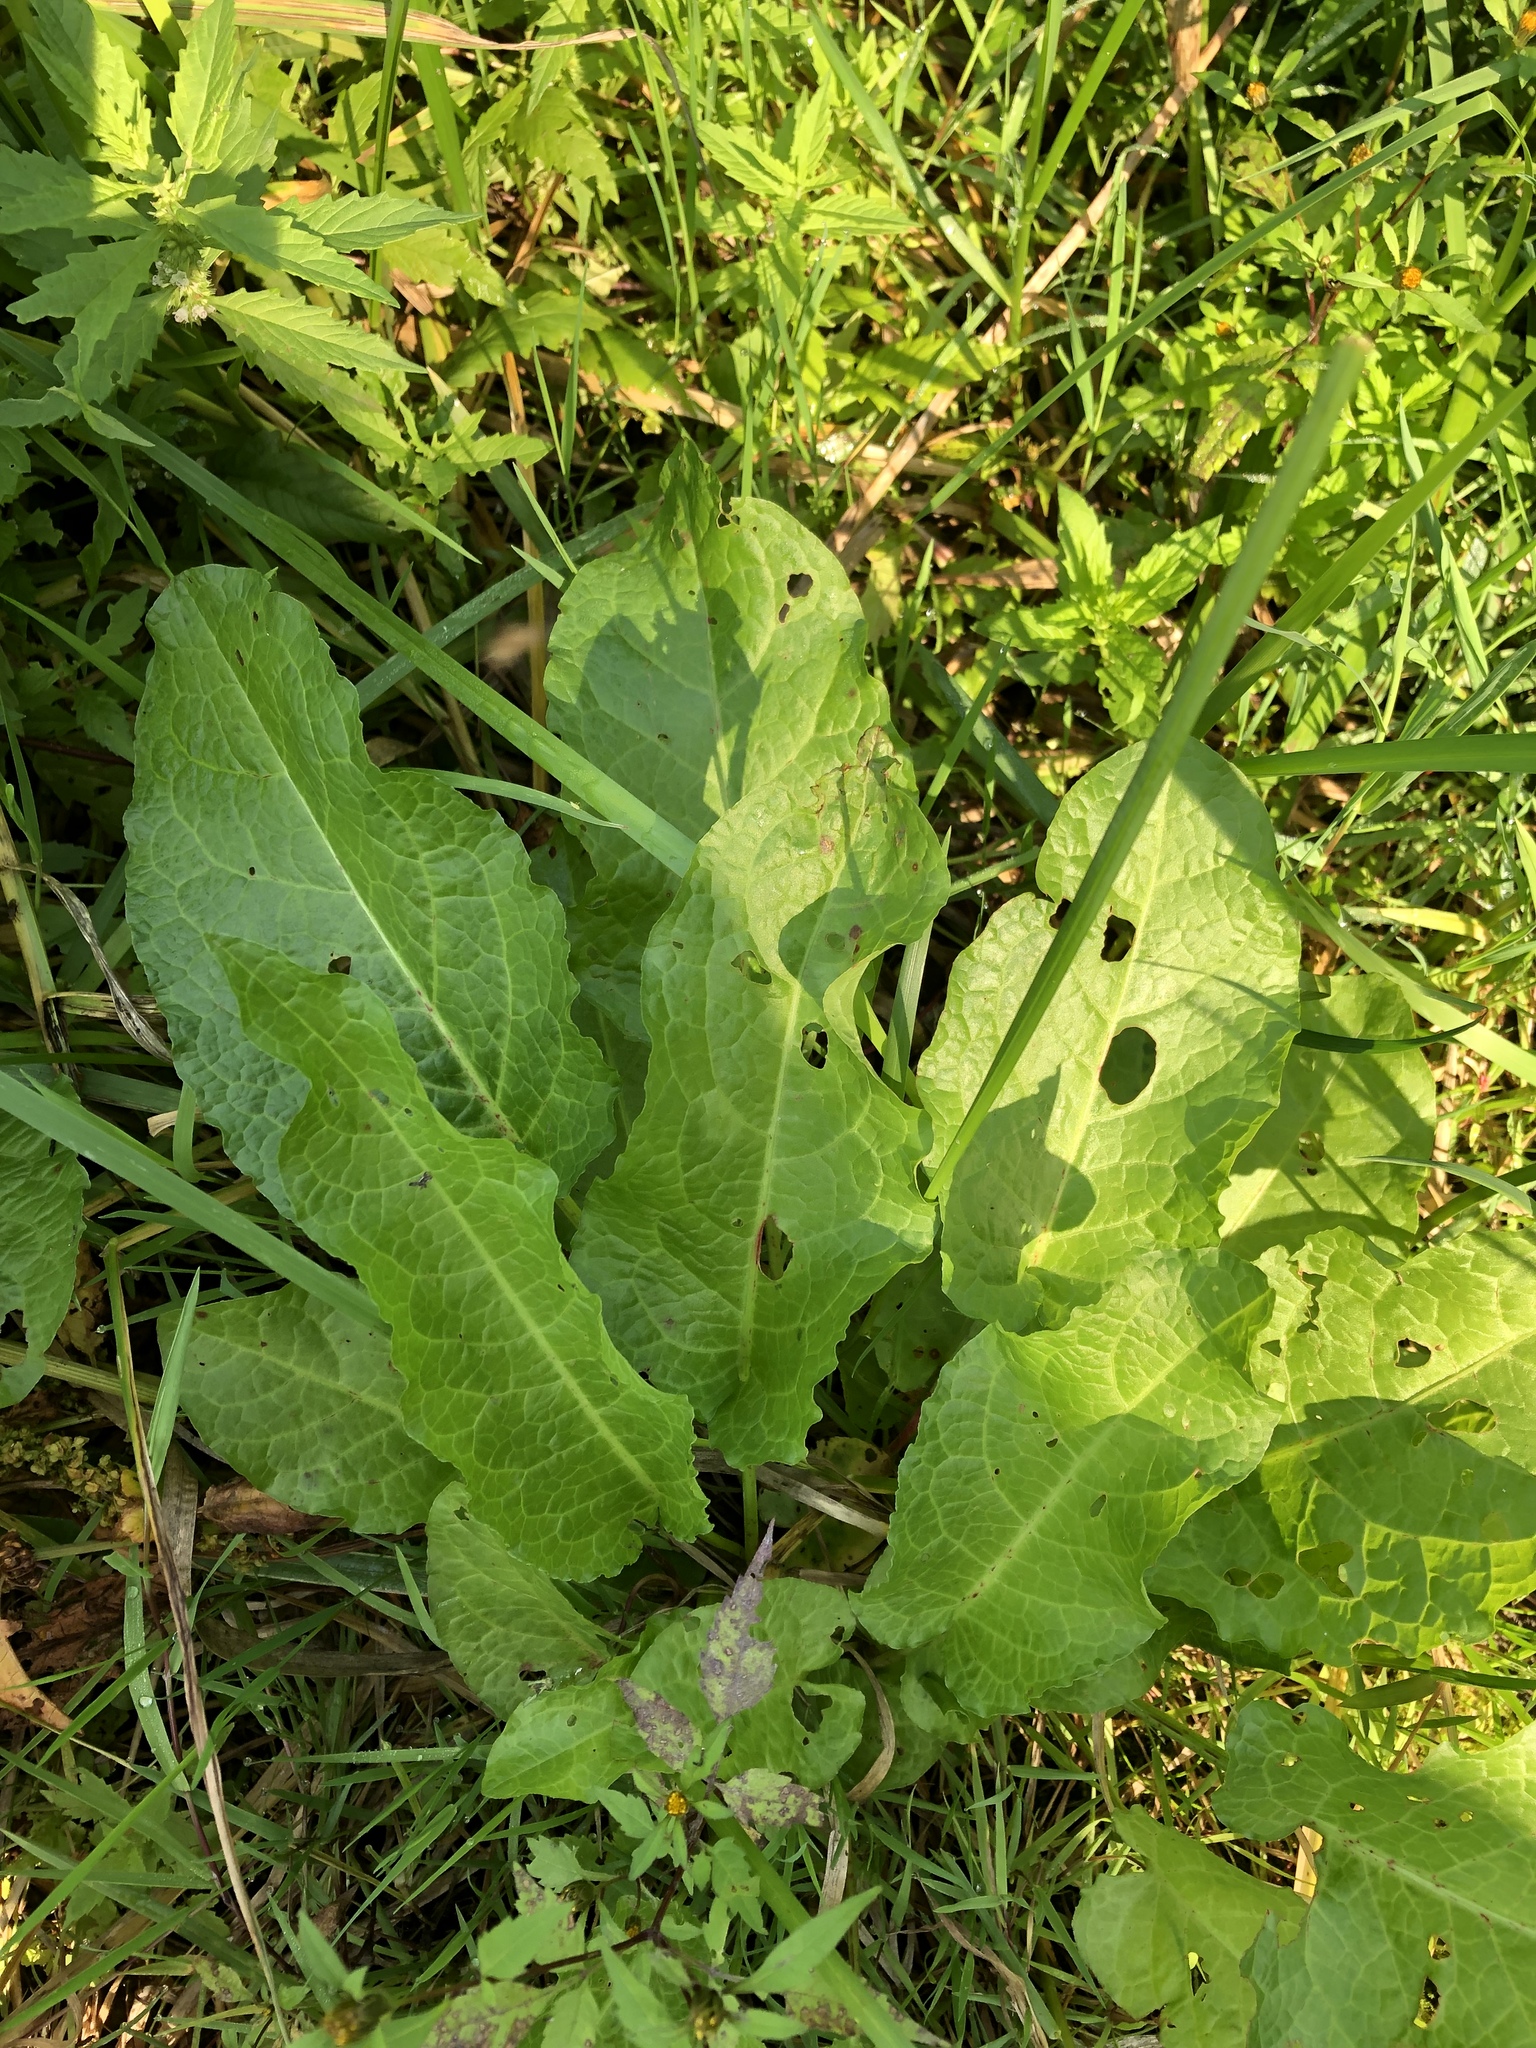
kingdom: Plantae
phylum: Tracheophyta
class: Magnoliopsida
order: Caryophyllales
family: Polygonaceae
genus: Rumex
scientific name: Rumex obtusifolius
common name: Bitter dock
